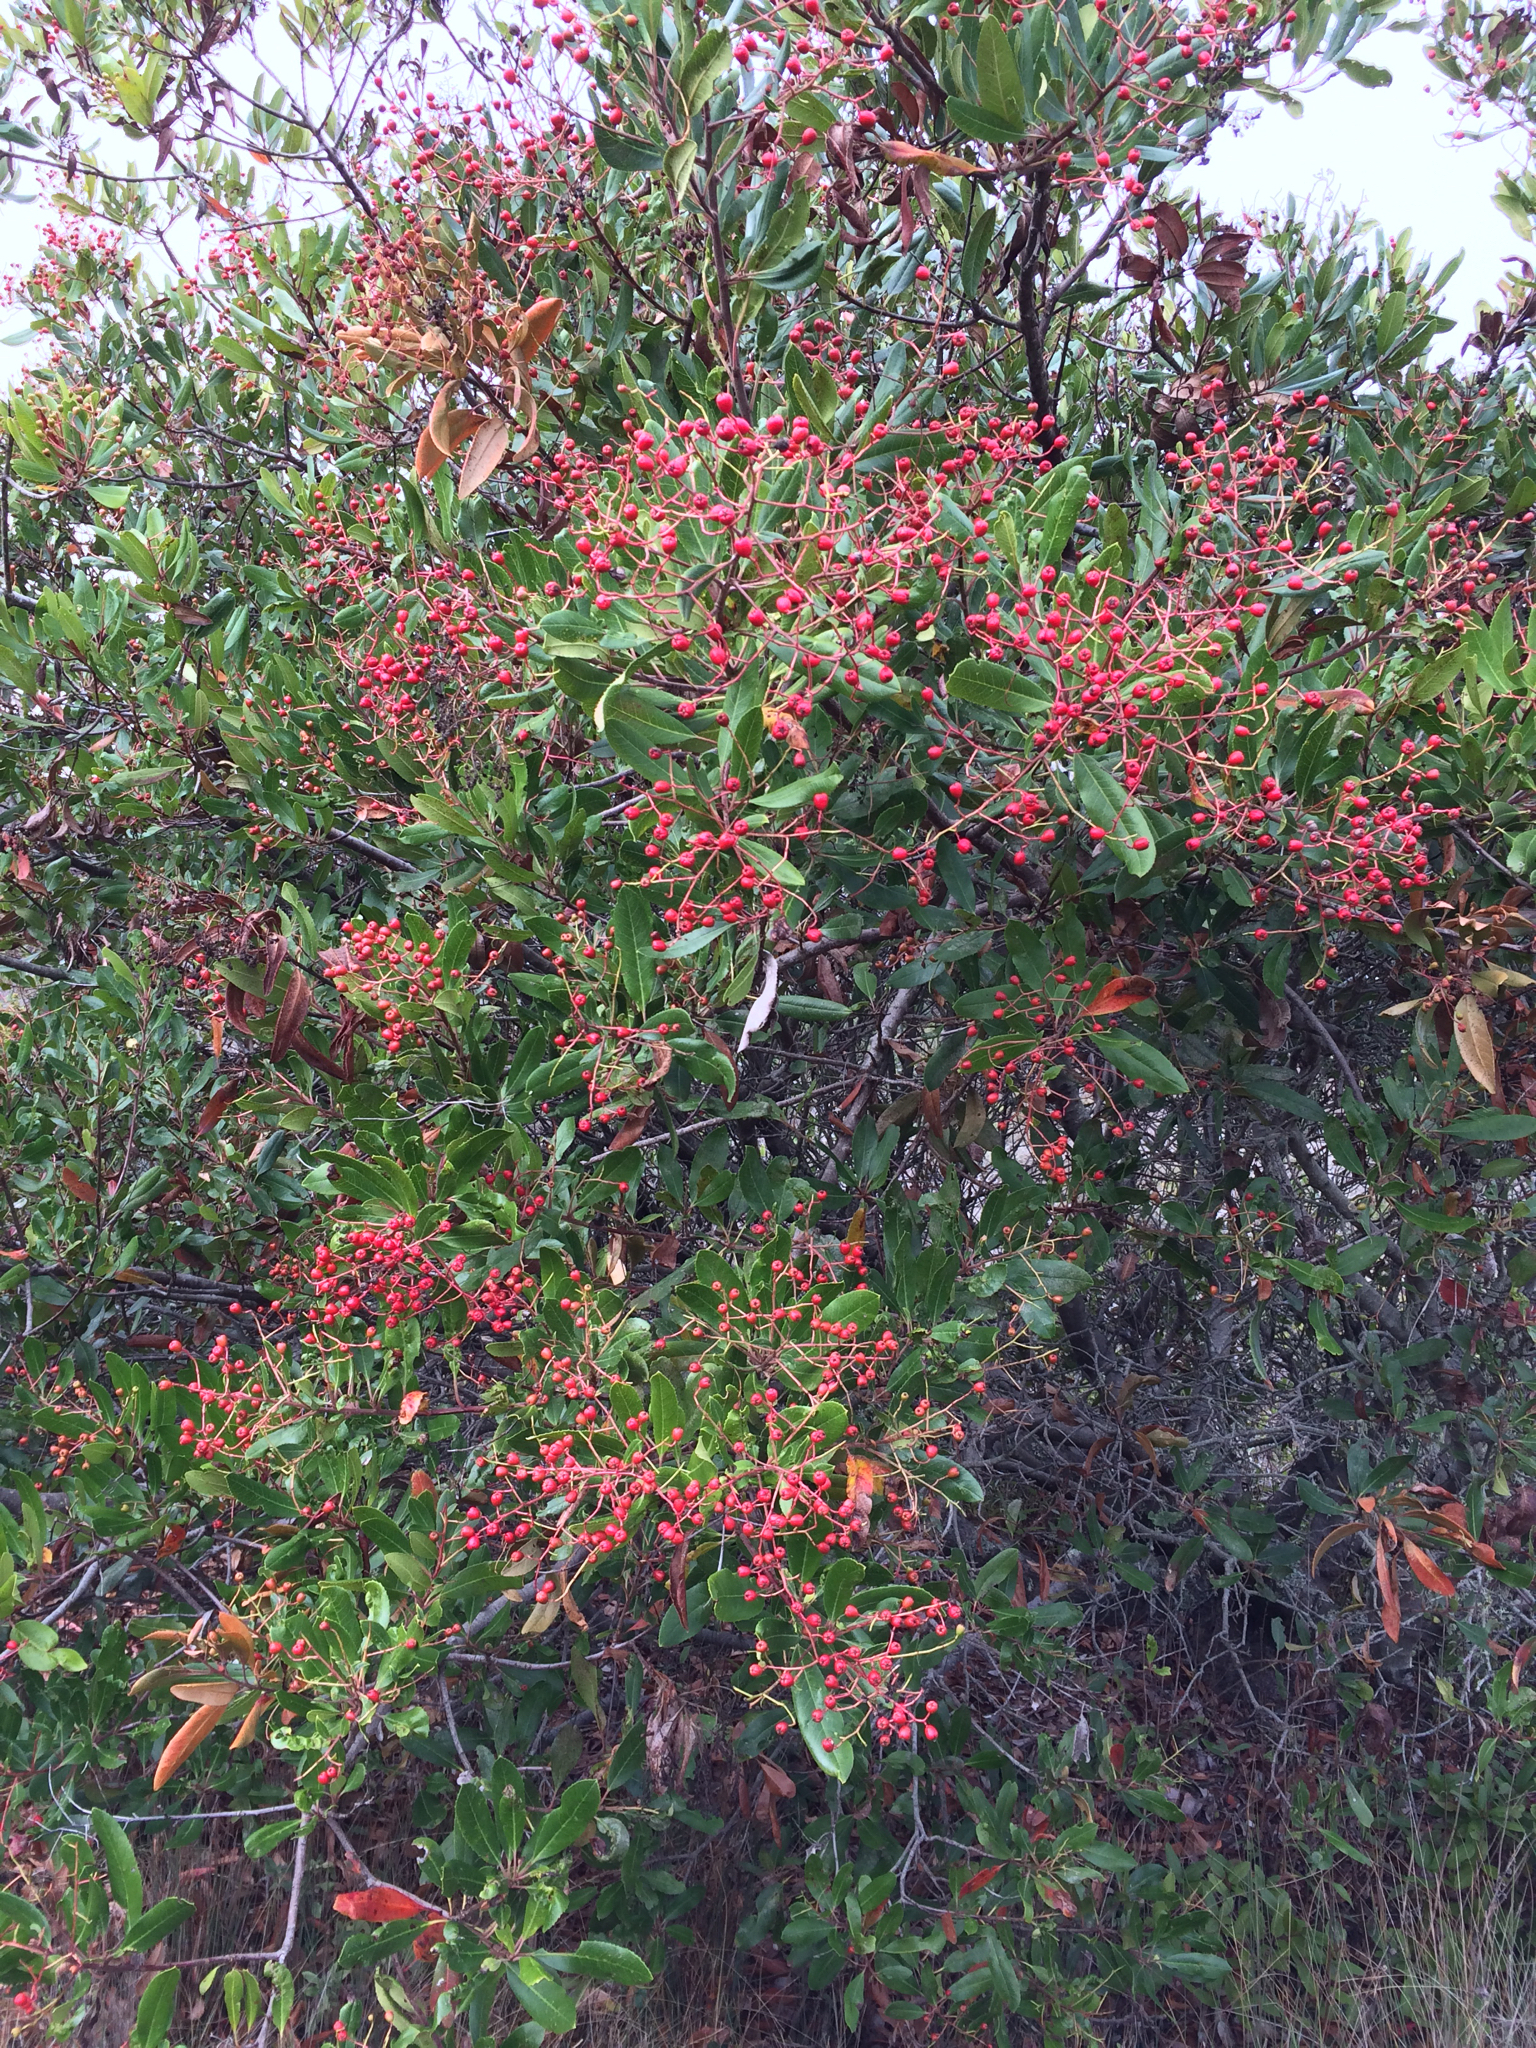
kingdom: Plantae
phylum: Tracheophyta
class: Magnoliopsida
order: Rosales
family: Rosaceae
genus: Heteromeles
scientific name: Heteromeles arbutifolia
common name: California-holly
